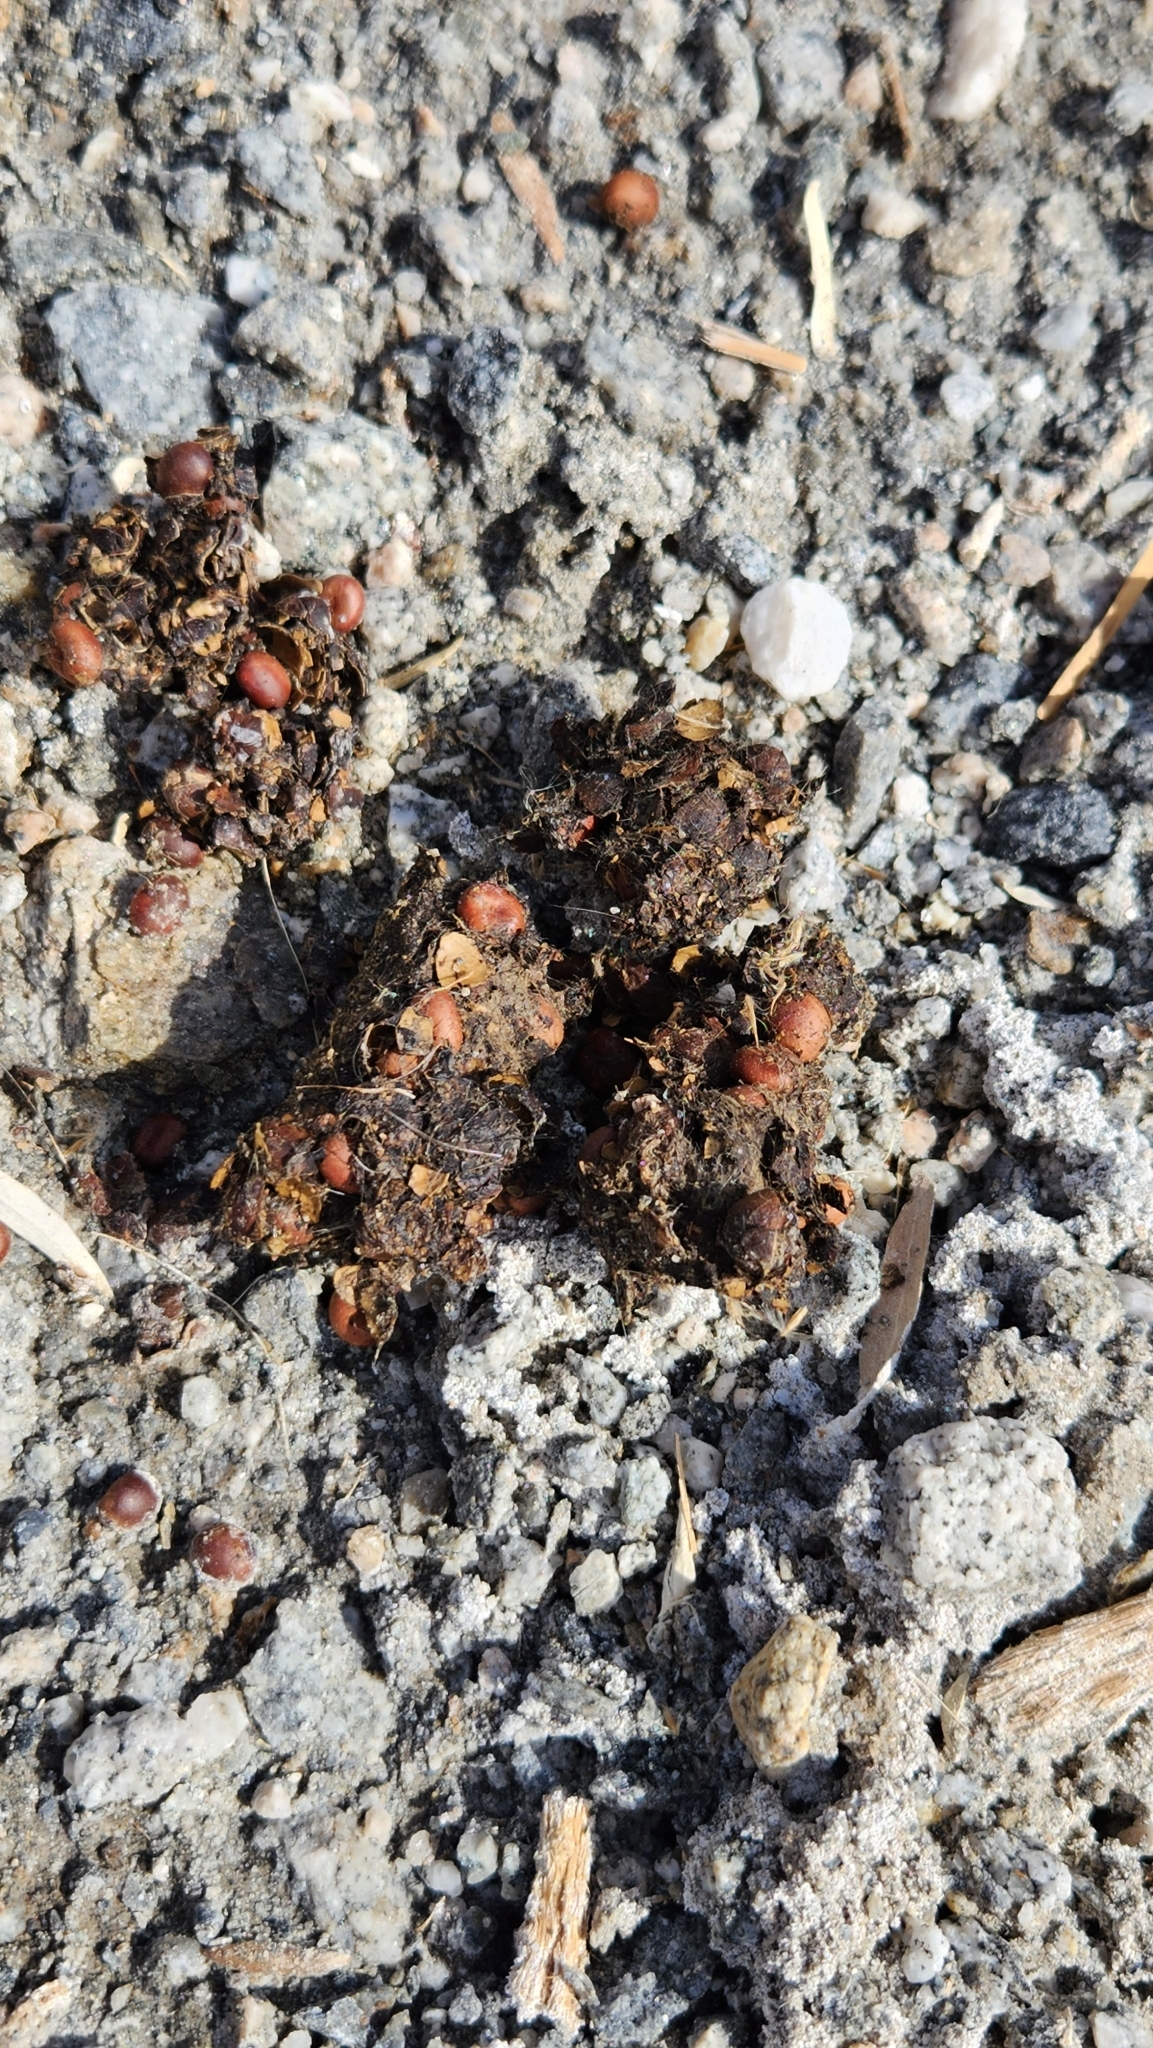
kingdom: Animalia
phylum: Chordata
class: Mammalia
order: Carnivora
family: Canidae
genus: Canis
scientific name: Canis latrans
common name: Coyote
